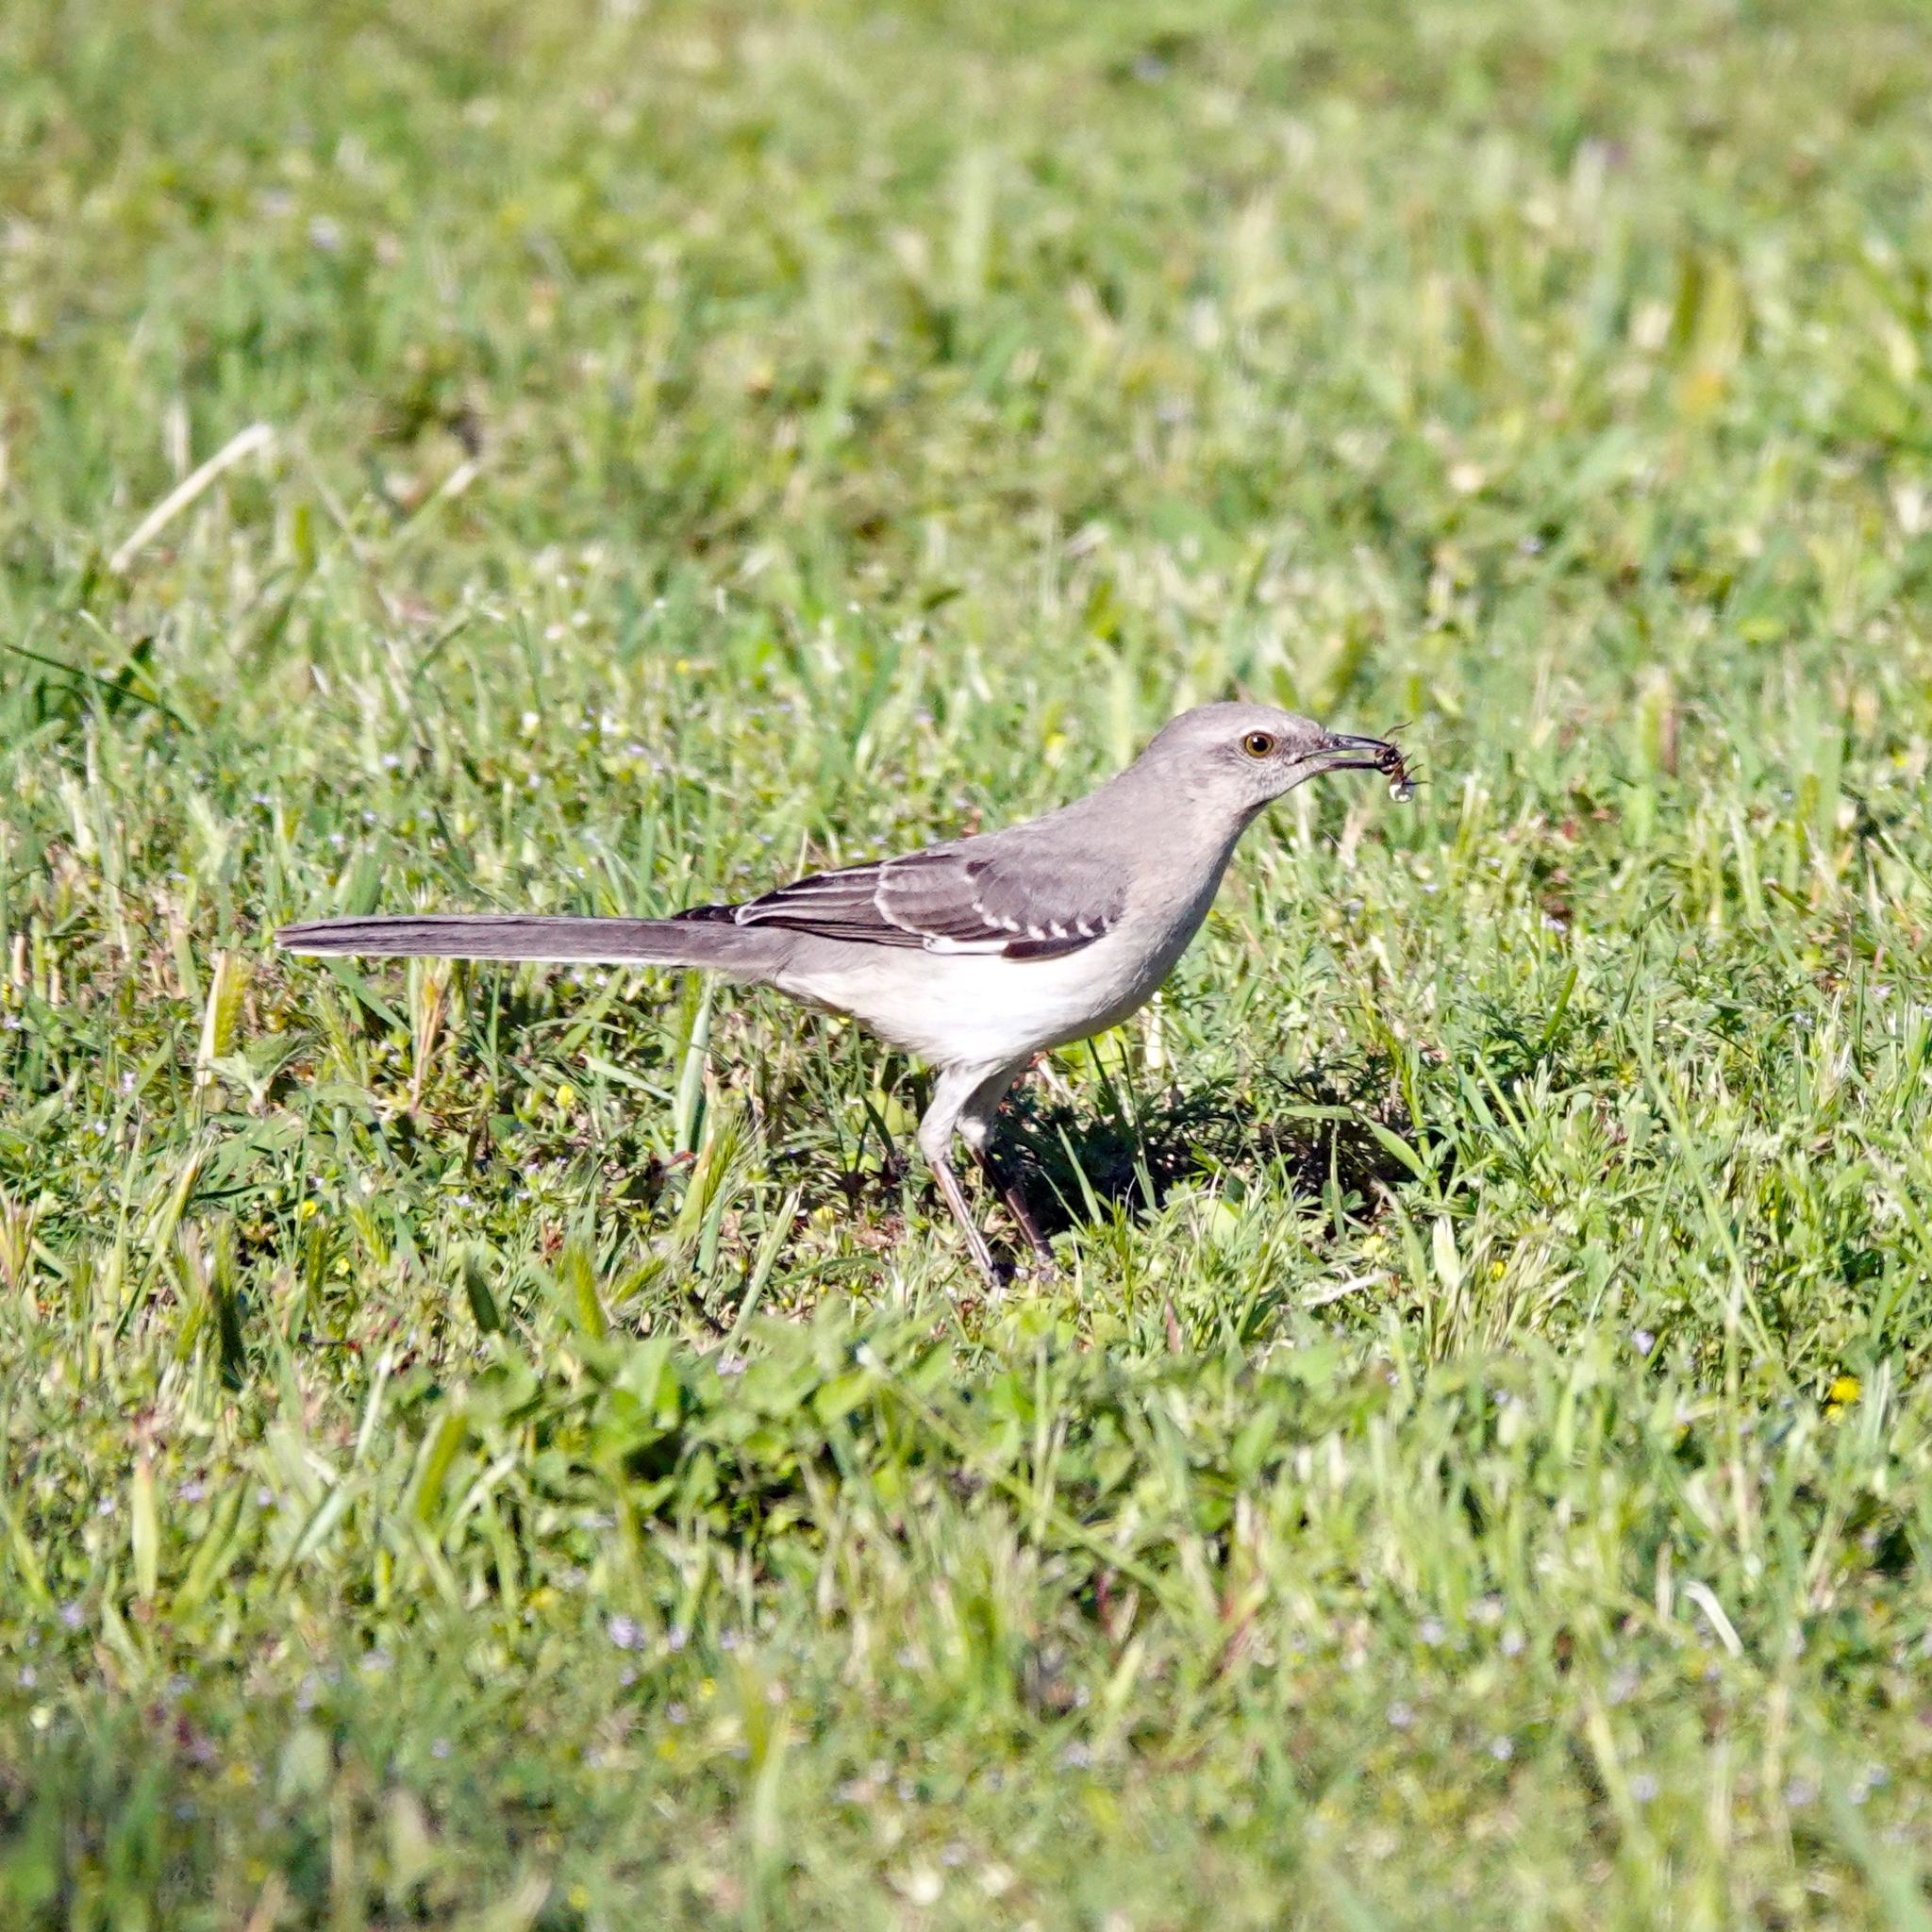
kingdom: Animalia
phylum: Chordata
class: Aves
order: Passeriformes
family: Mimidae
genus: Mimus
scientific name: Mimus polyglottos
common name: Northern mockingbird
